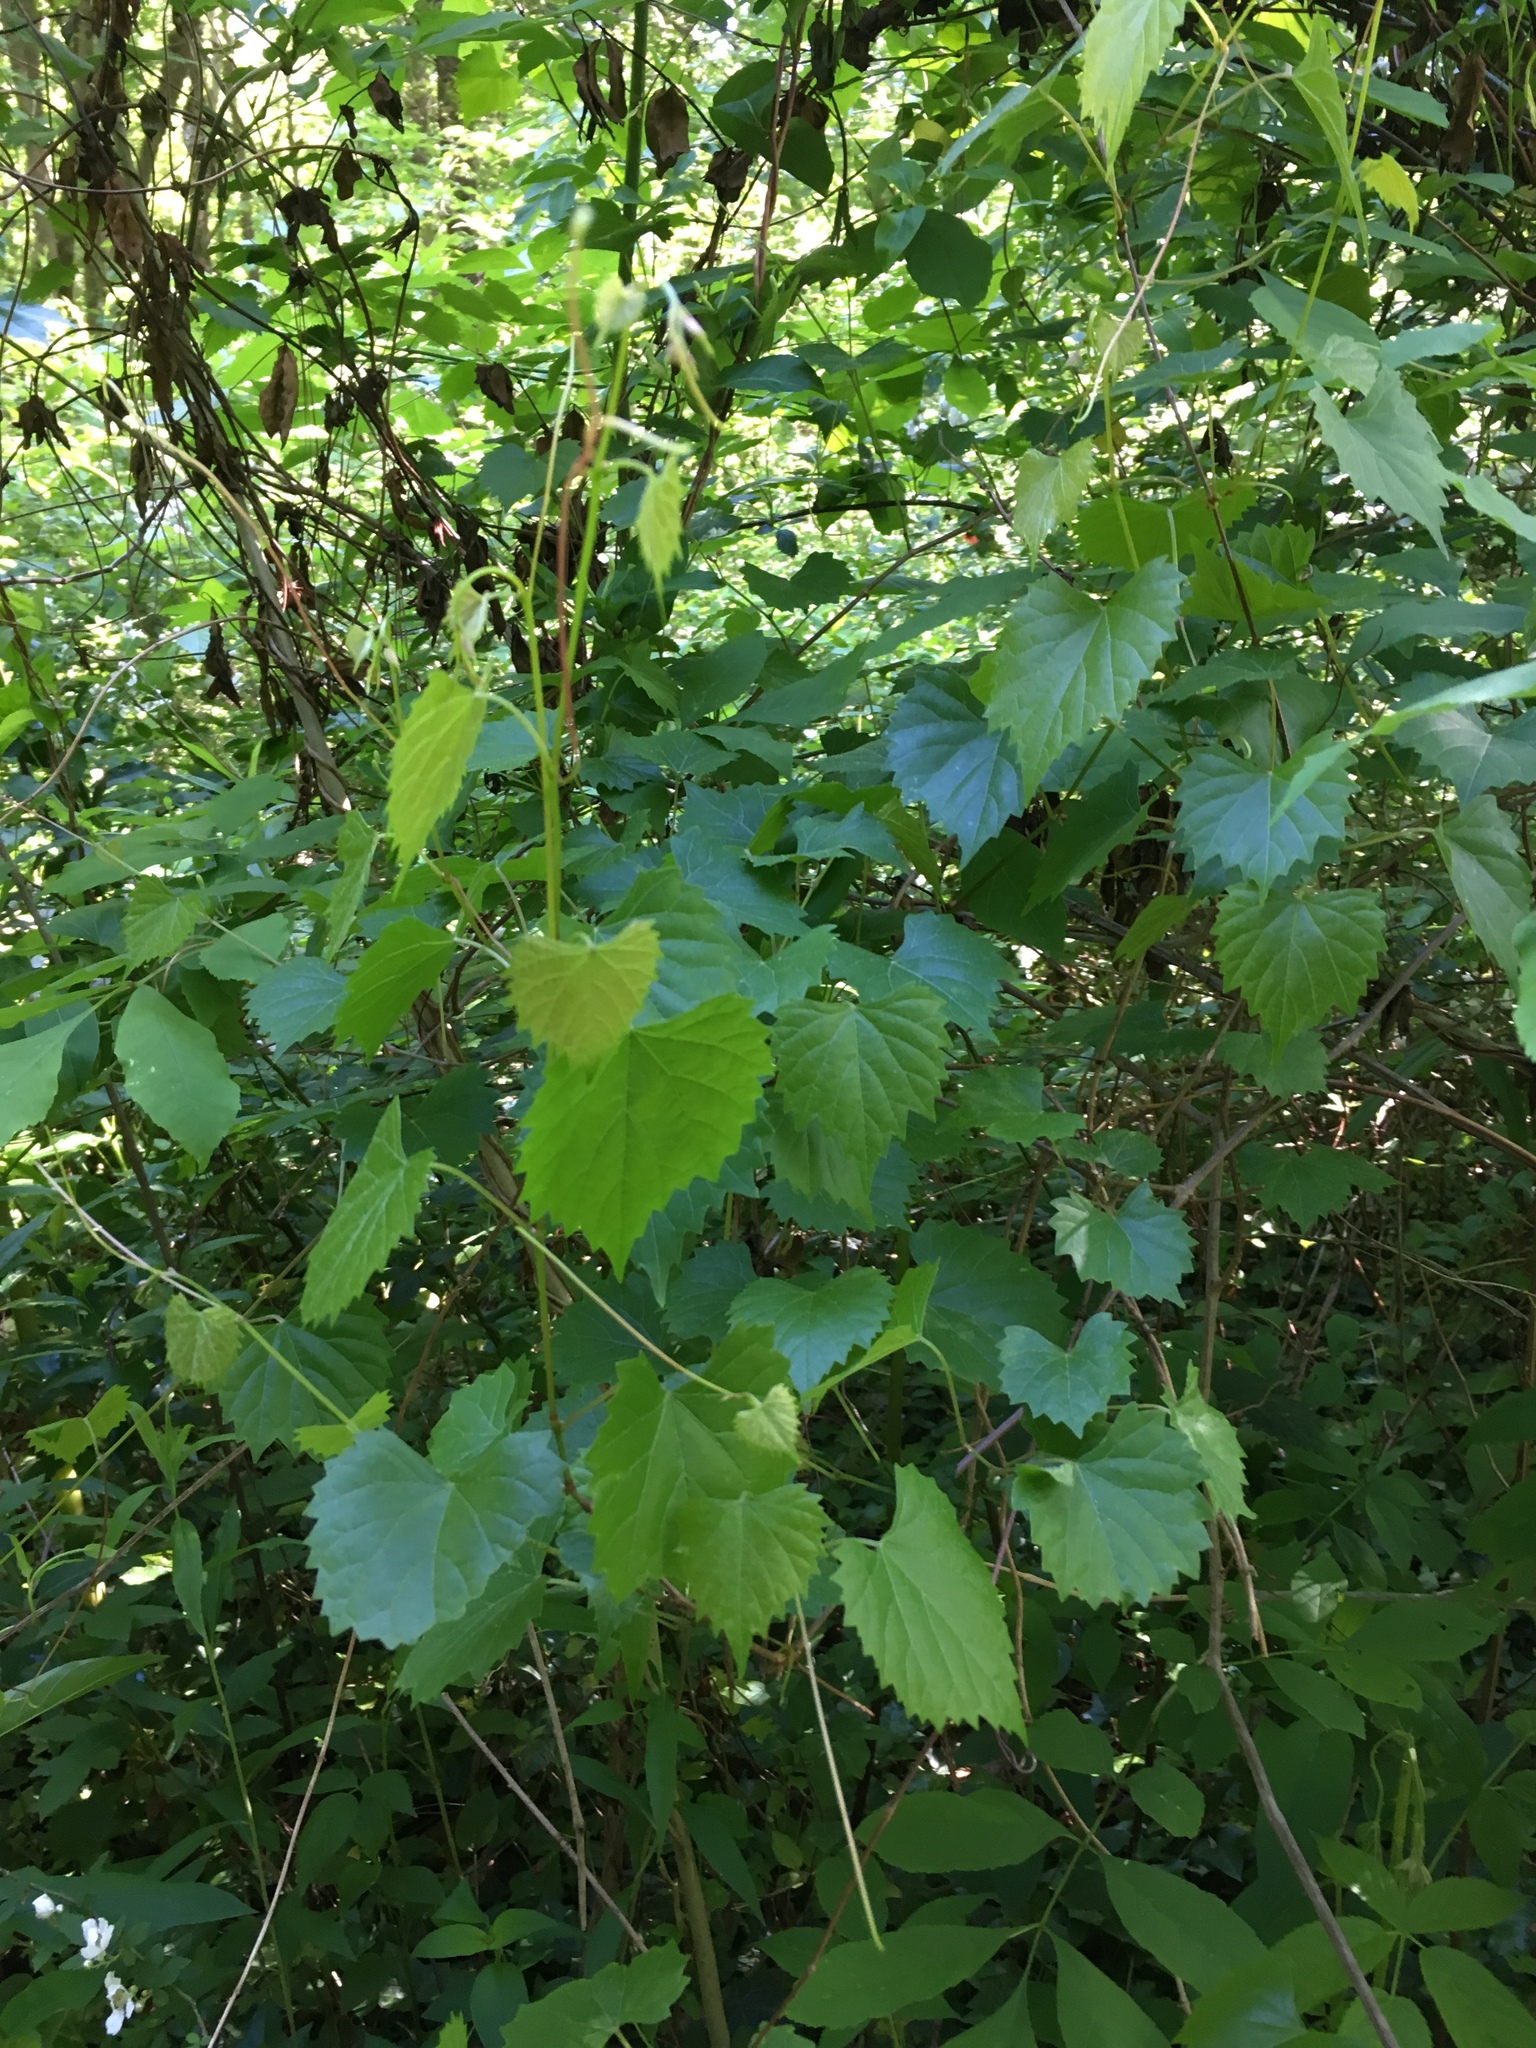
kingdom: Plantae
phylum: Tracheophyta
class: Magnoliopsida
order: Vitales
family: Vitaceae
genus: Vitis
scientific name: Vitis rotundifolia
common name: Muscadine grape
